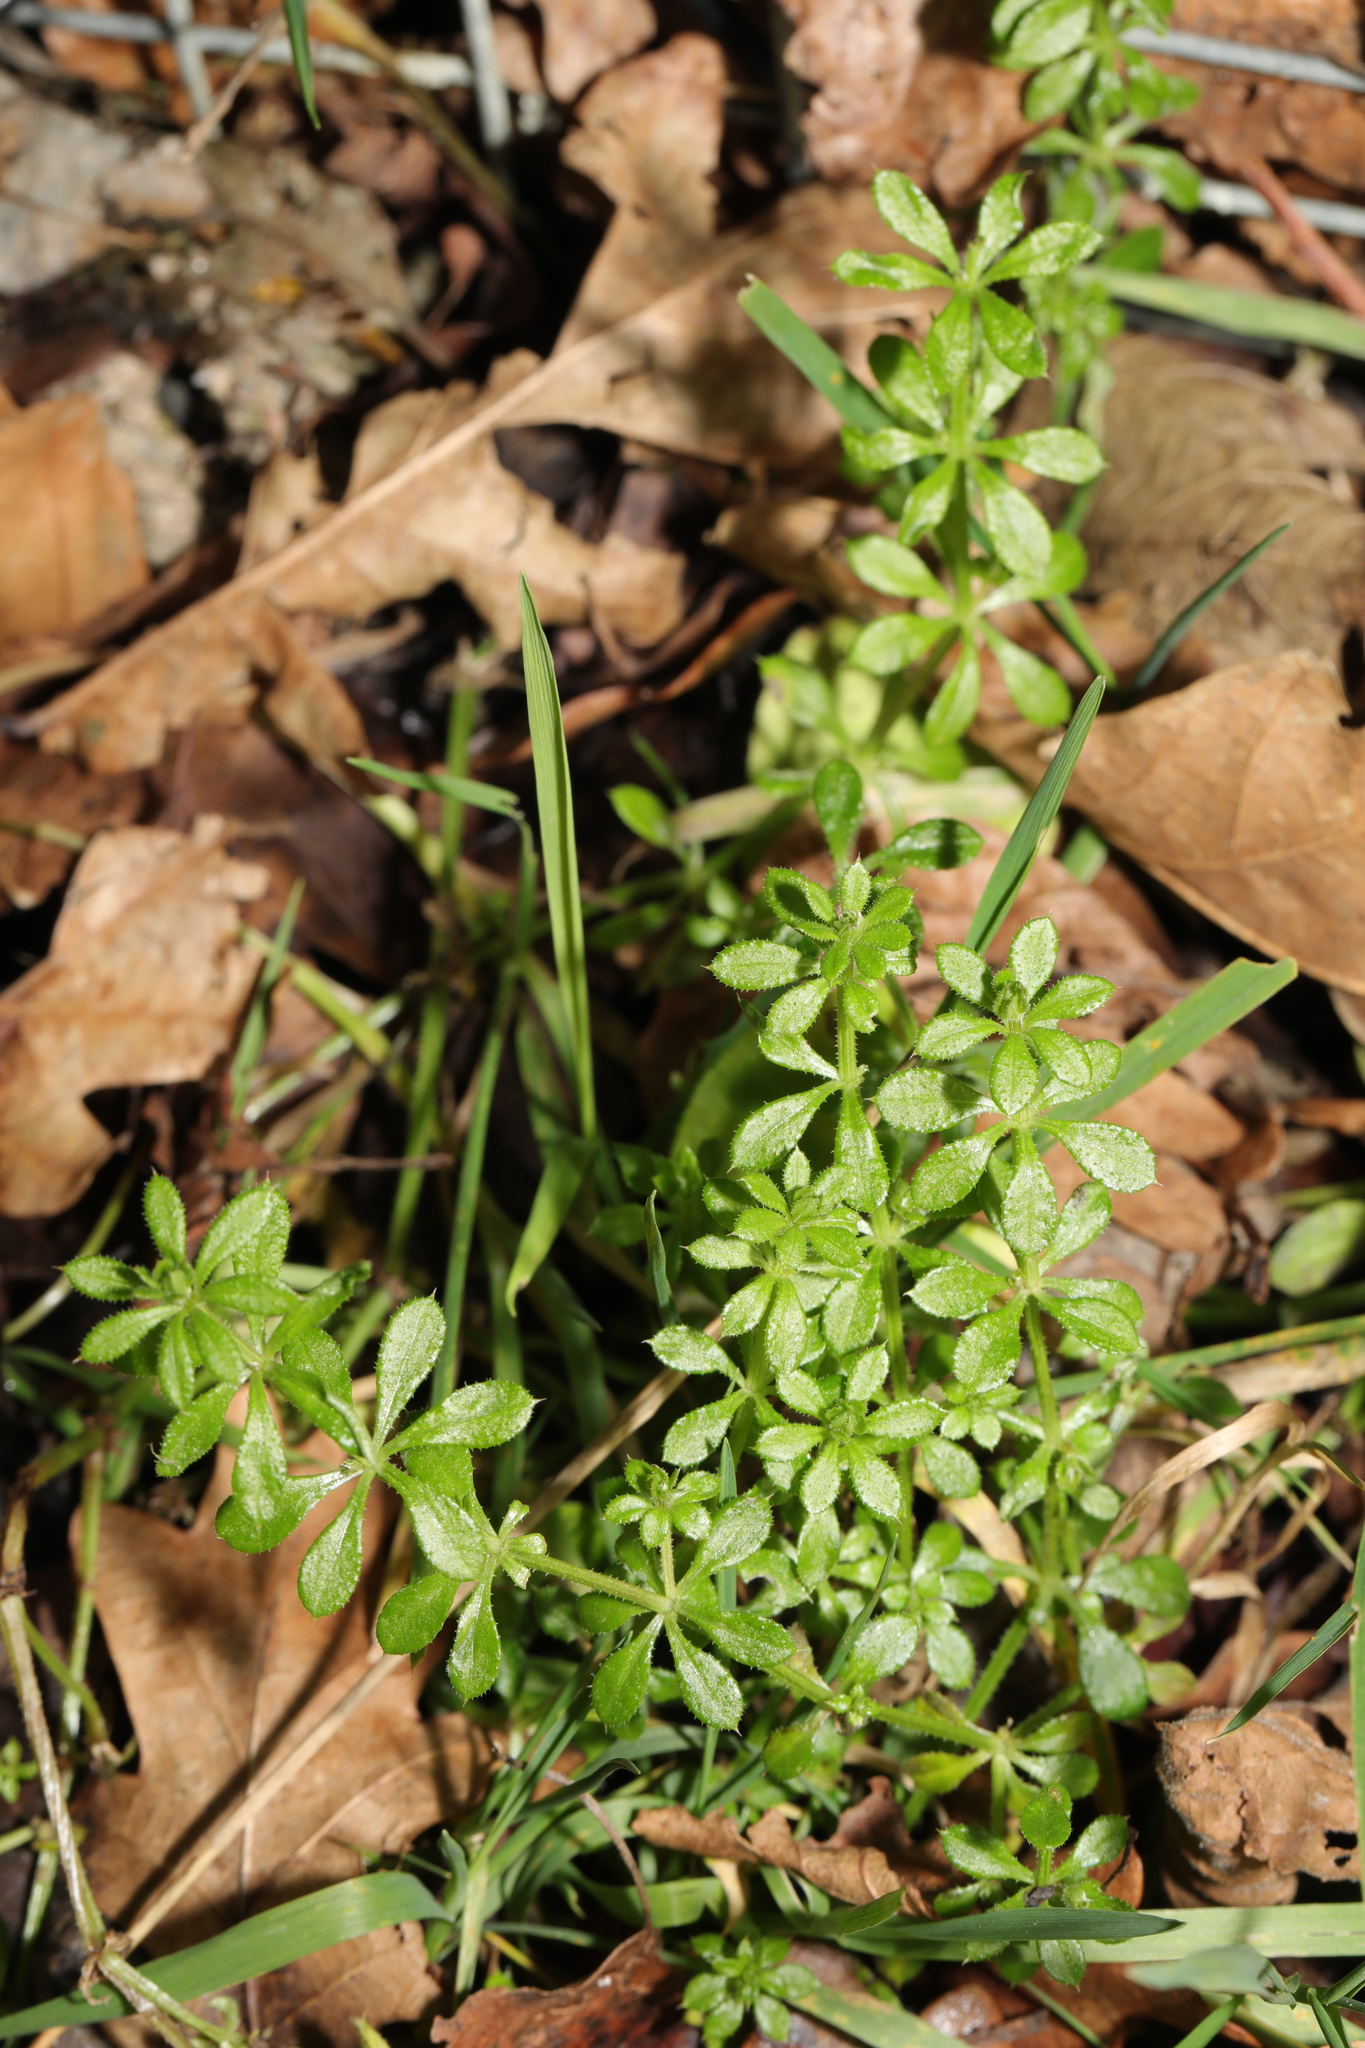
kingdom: Plantae
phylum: Tracheophyta
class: Magnoliopsida
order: Gentianales
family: Rubiaceae
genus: Galium
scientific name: Galium aparine
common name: Cleavers
